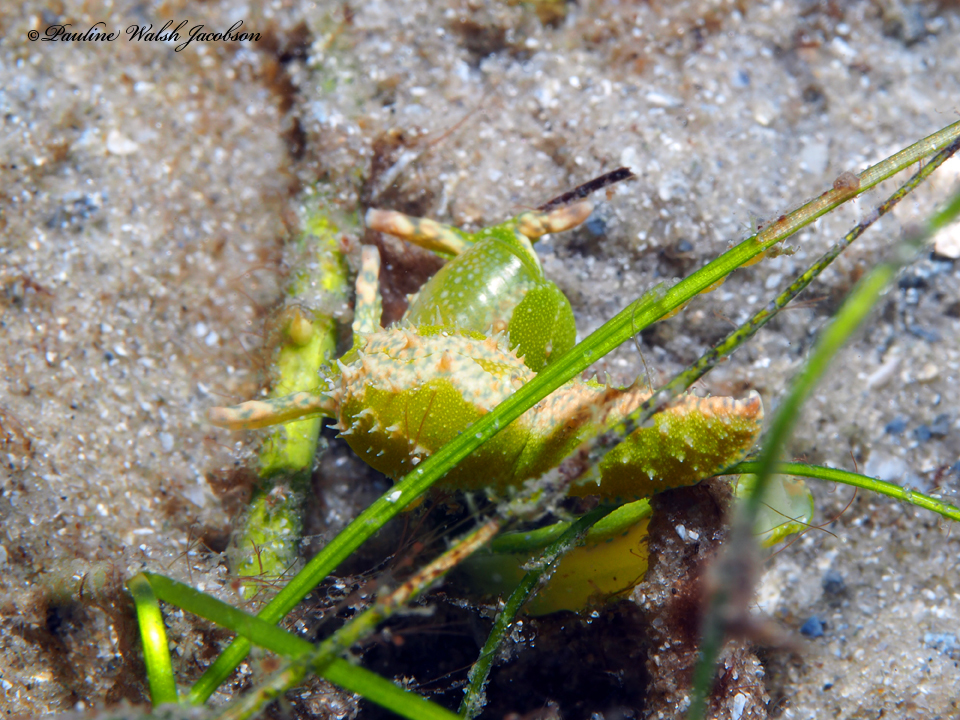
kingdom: Animalia
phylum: Mollusca
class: Gastropoda
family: Oxynoidae
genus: Oxynoe
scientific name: Oxynoe antillarum
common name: Antilles oxynoe
